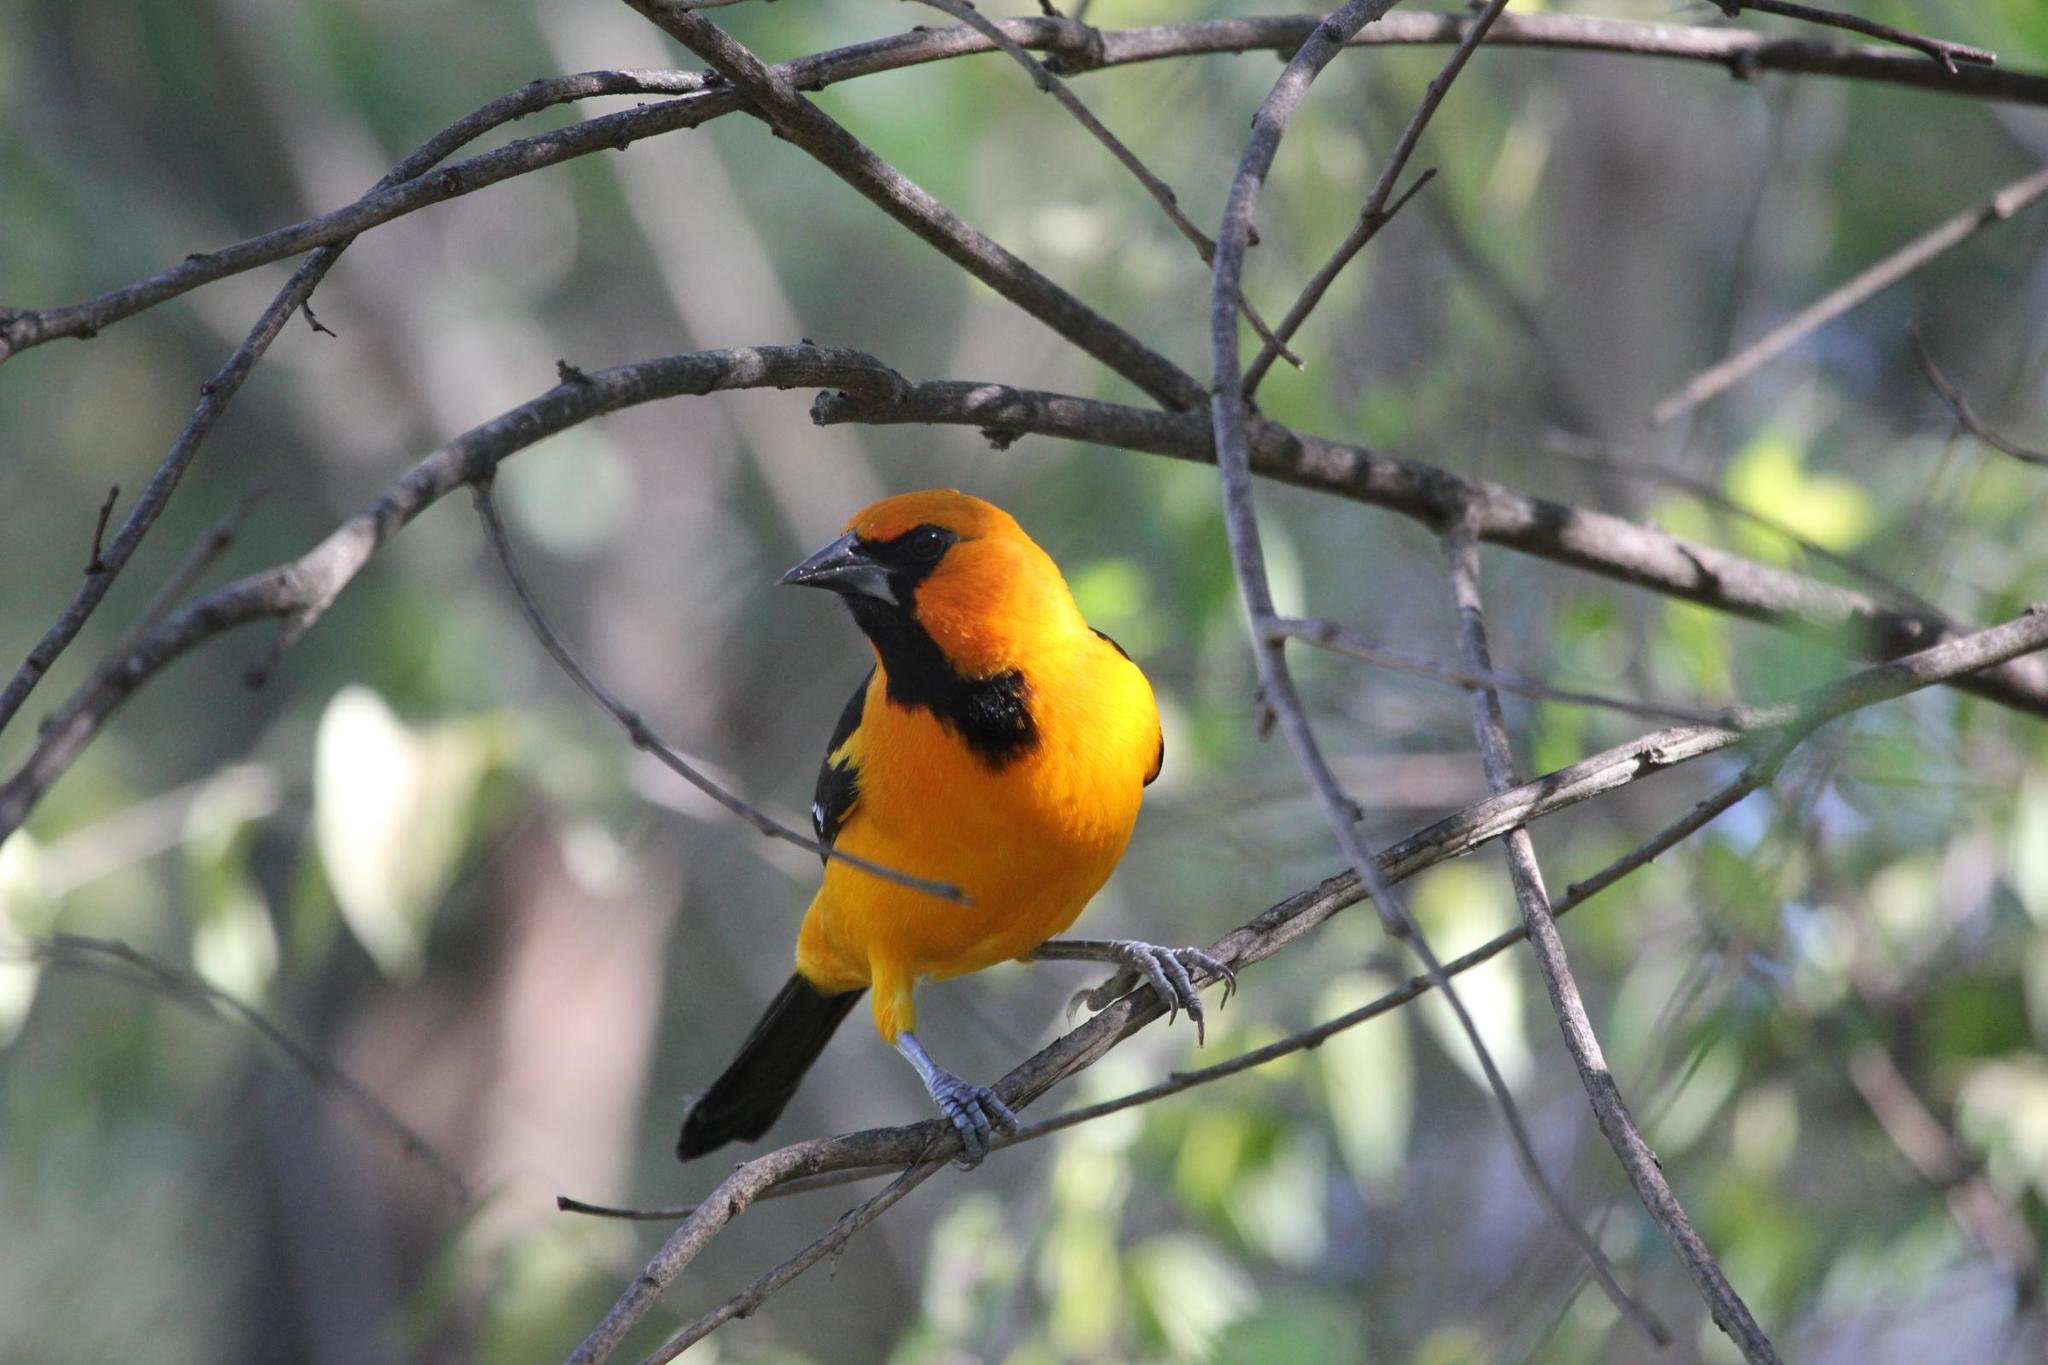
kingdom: Animalia
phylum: Chordata
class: Aves
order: Passeriformes
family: Icteridae
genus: Icterus
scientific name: Icterus gularis
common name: Altamira oriole
